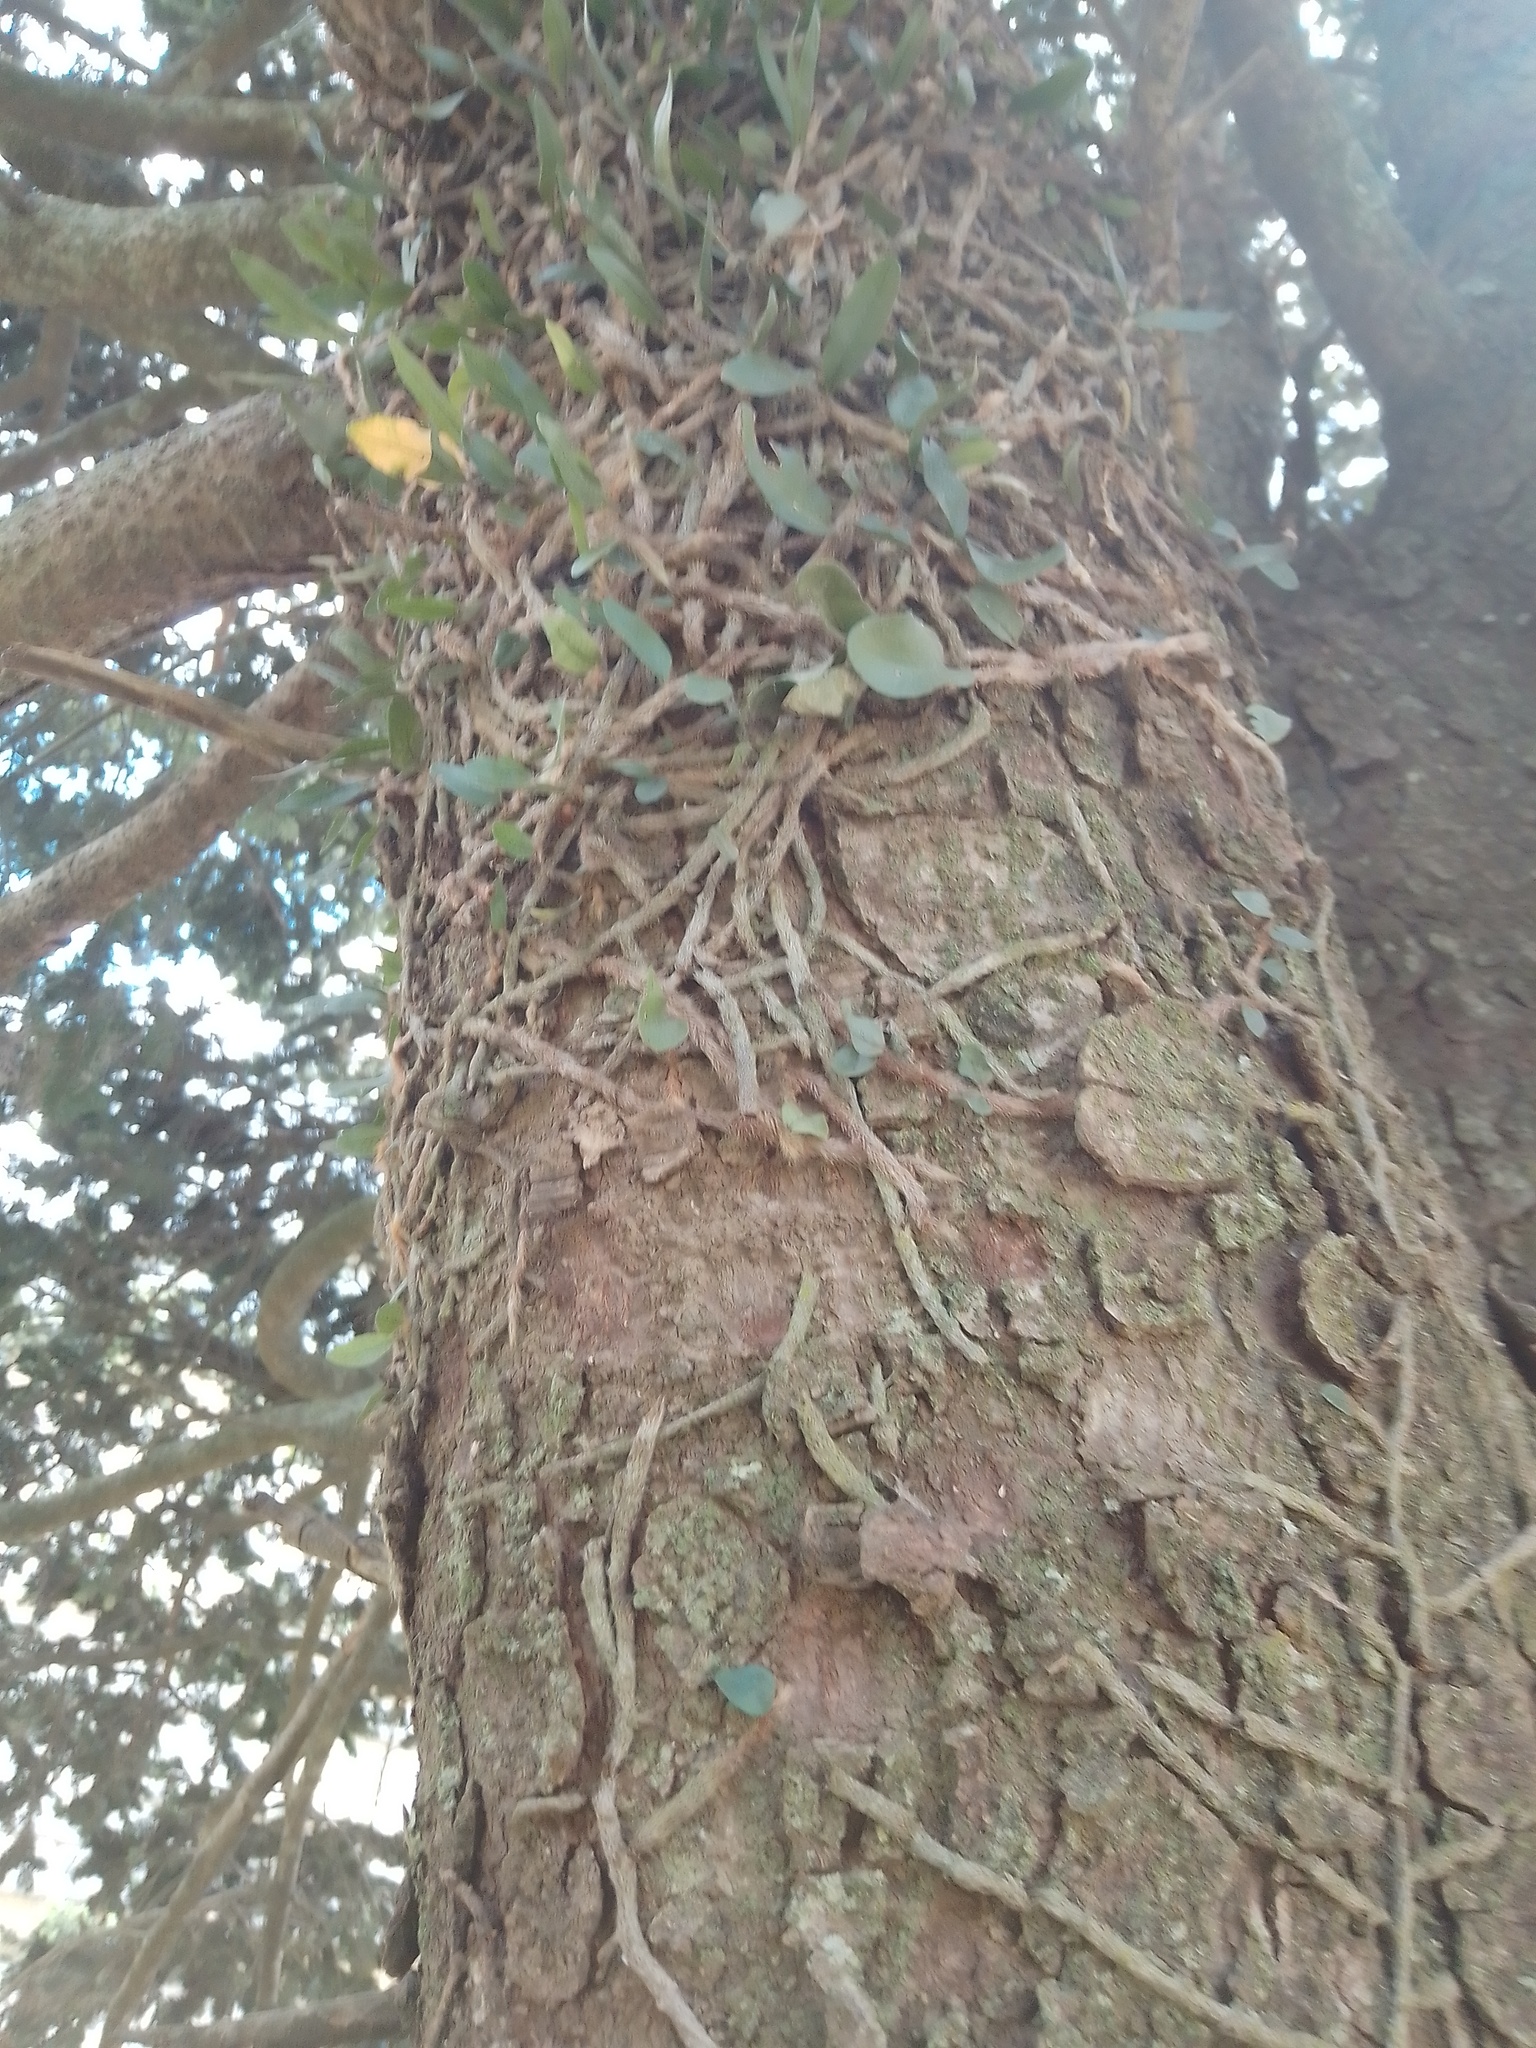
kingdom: Plantae
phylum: Tracheophyta
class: Polypodiopsida
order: Polypodiales
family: Polypodiaceae
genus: Microgramma
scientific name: Microgramma mortoniana
